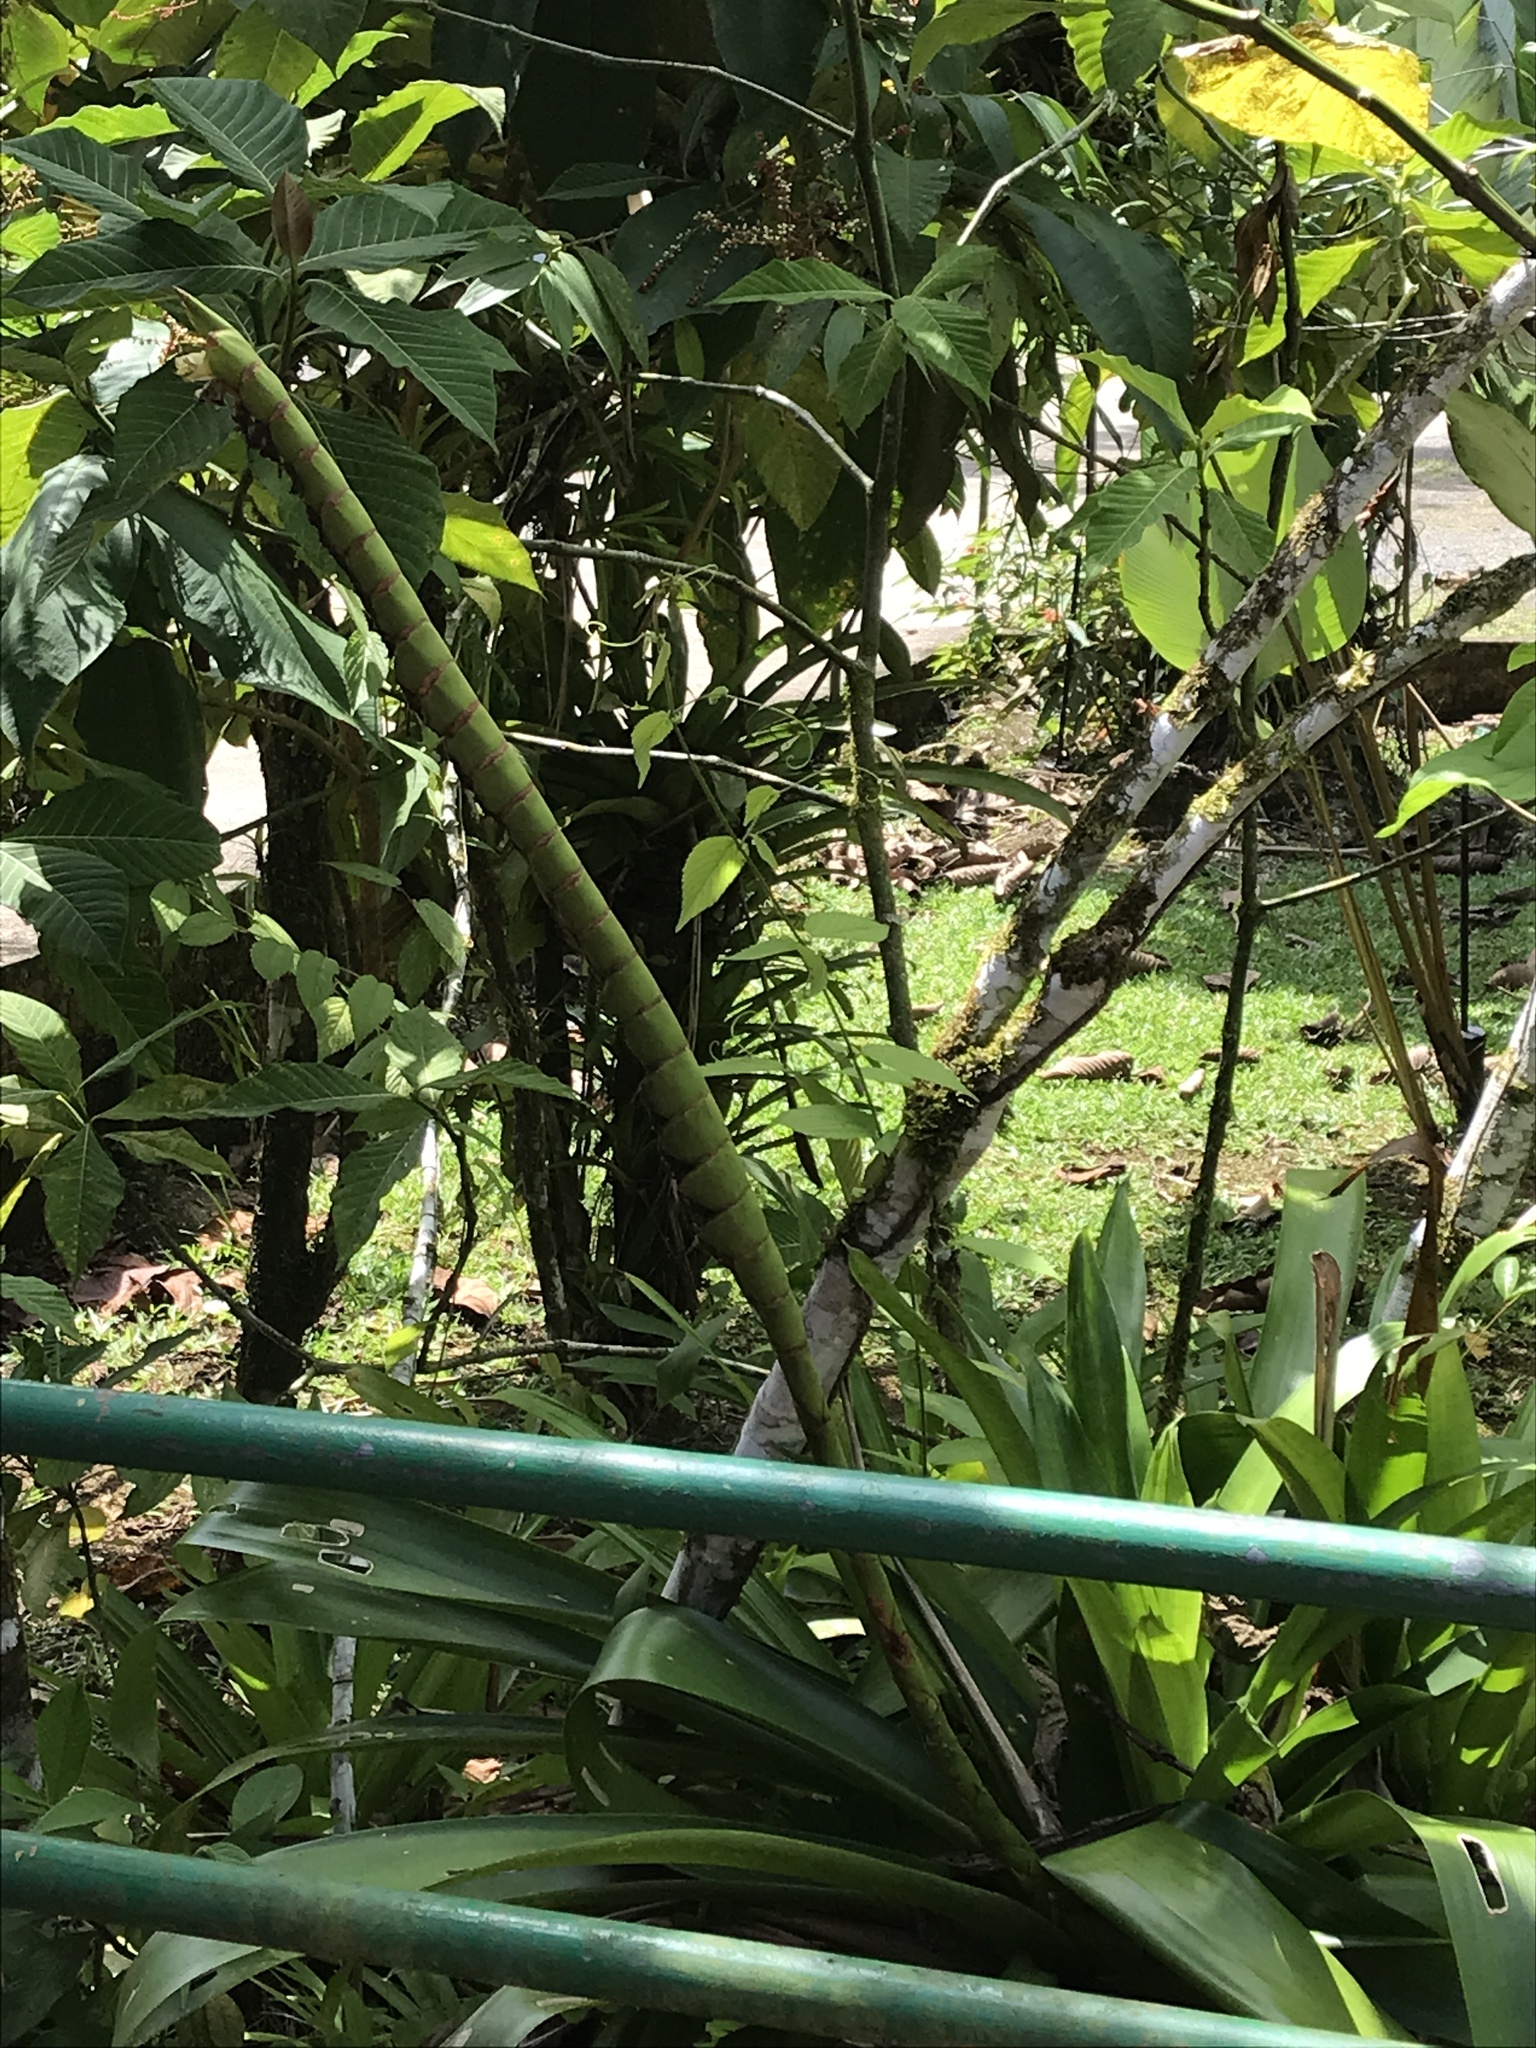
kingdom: Plantae
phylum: Tracheophyta
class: Liliopsida
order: Poales
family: Bromeliaceae
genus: Werauhia
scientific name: Werauhia gladioliflora
